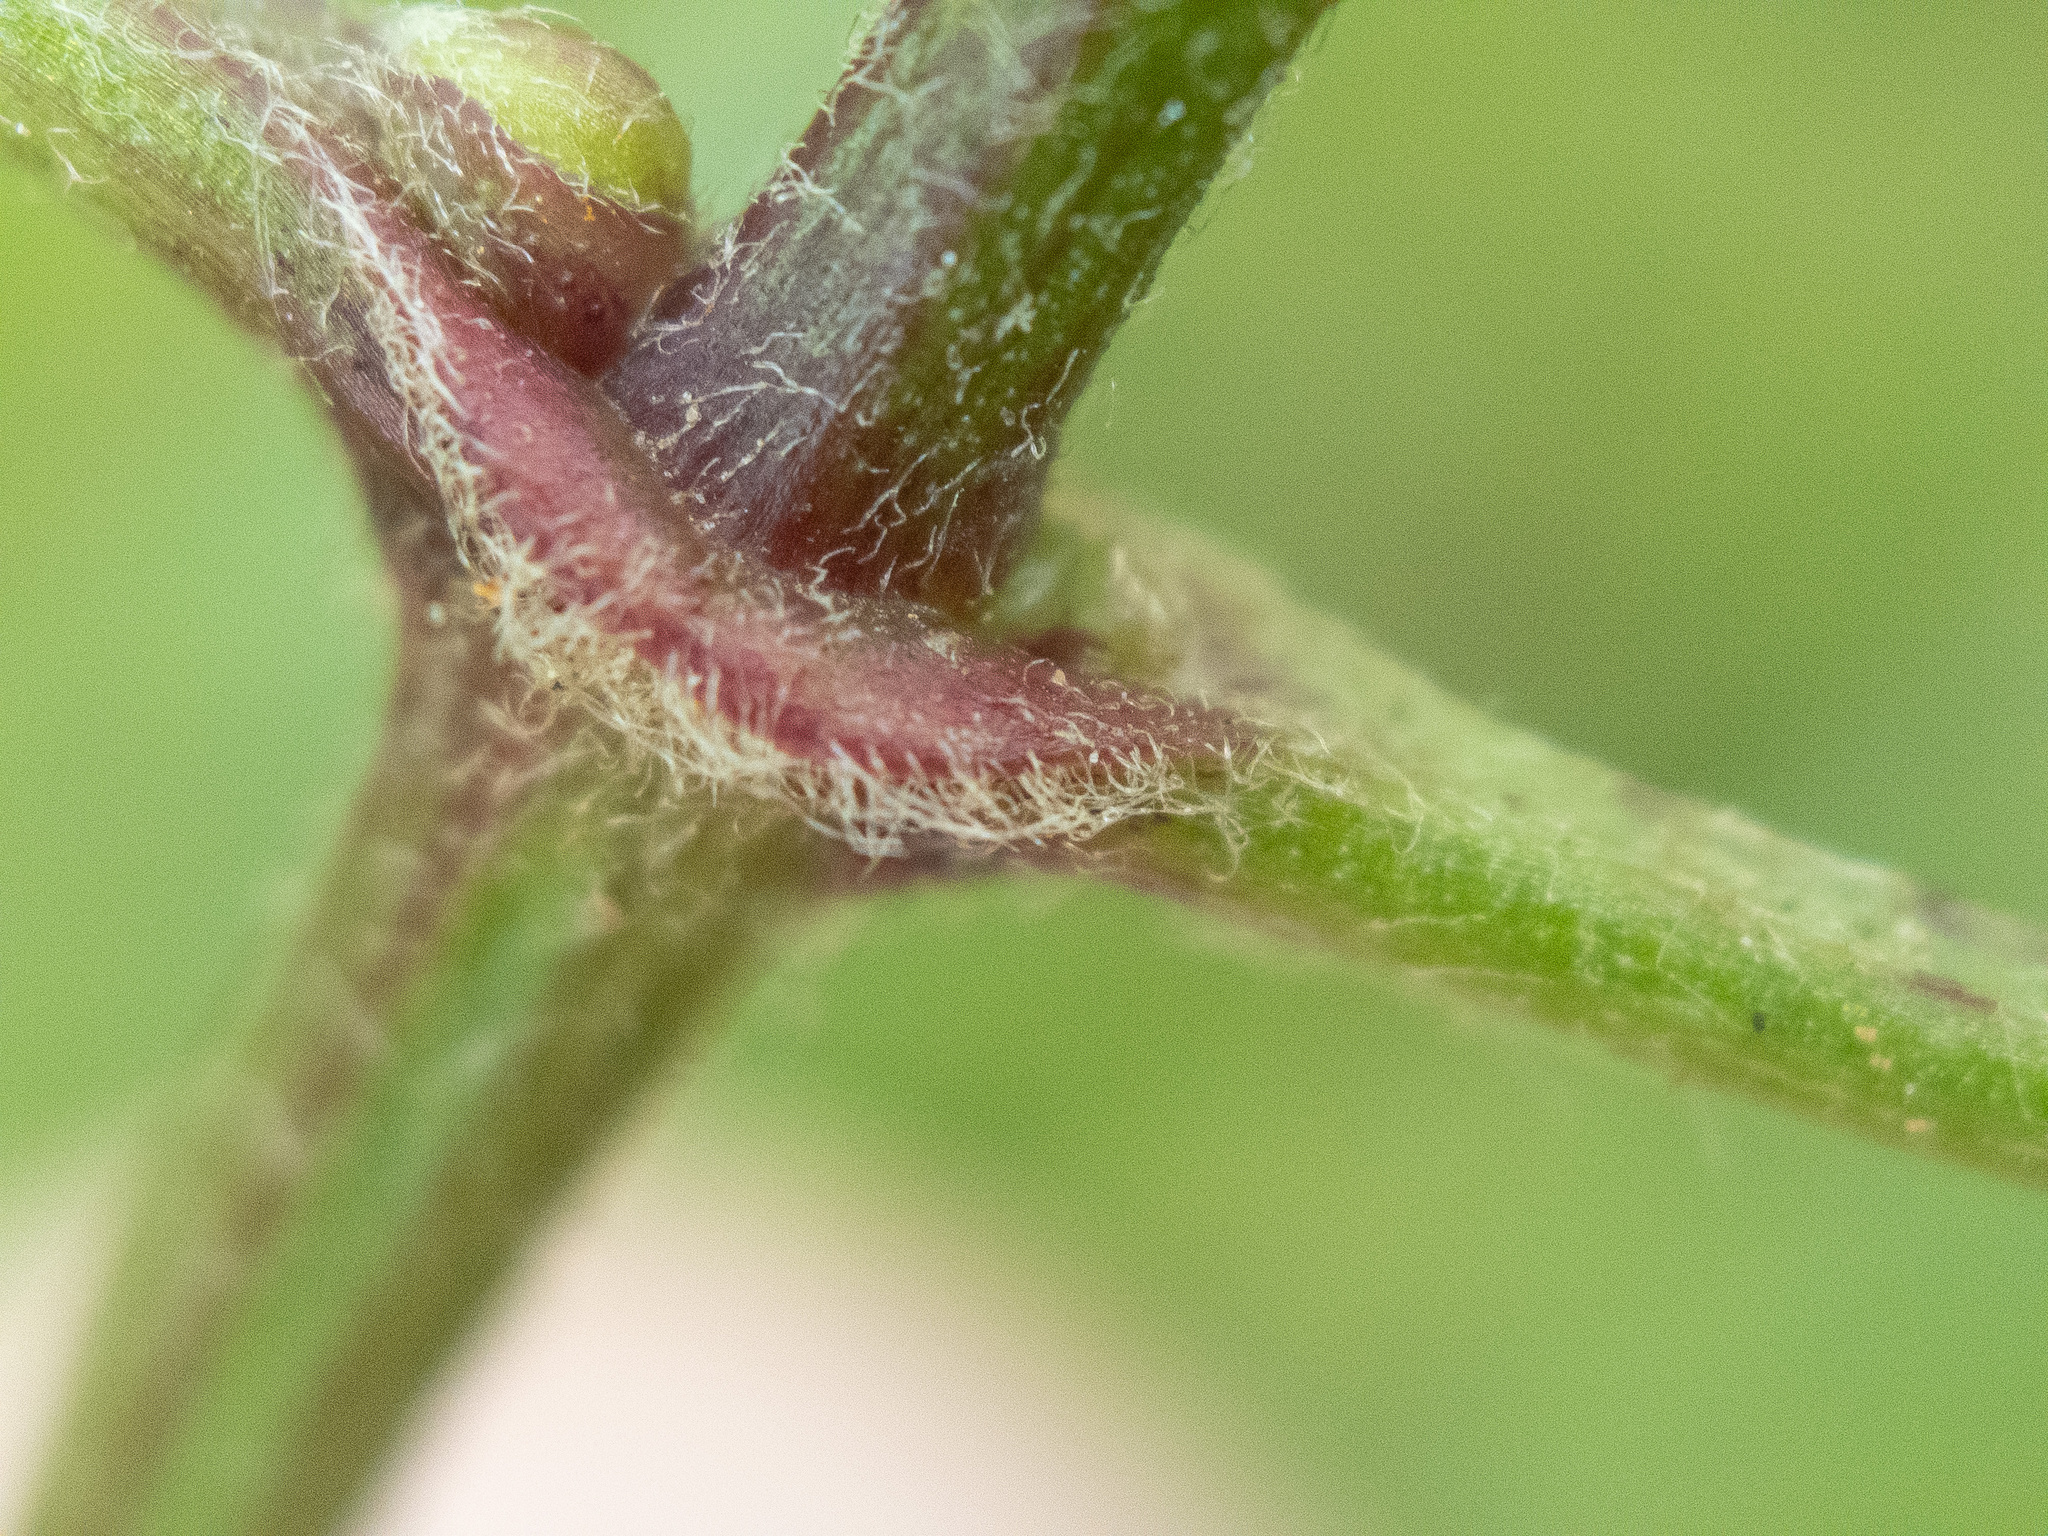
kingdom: Plantae
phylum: Tracheophyta
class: Magnoliopsida
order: Ranunculales
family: Ranunculaceae
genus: Clematis
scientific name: Clematis virginiana
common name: Virgin's-bower
